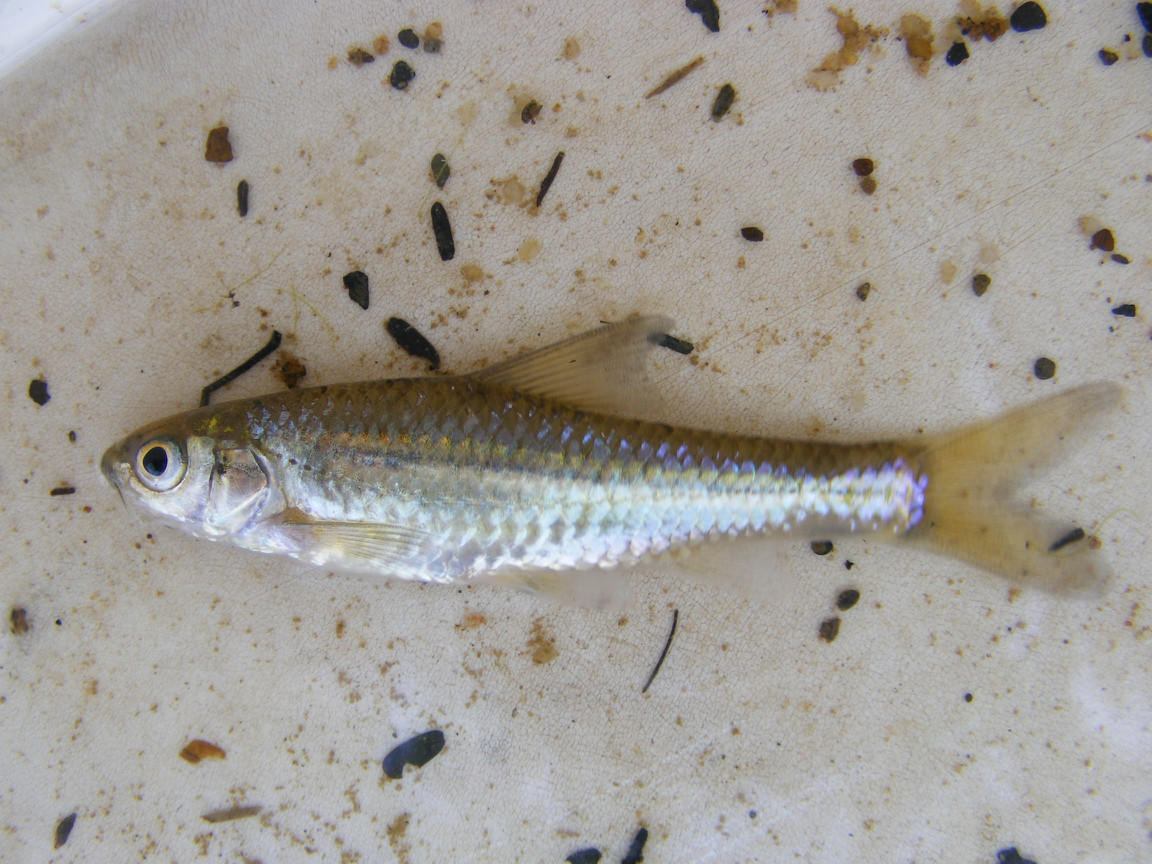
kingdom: Animalia
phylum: Chordata
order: Cypriniformes
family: Cyprinidae
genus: Enteromius
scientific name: Enteromius unitaeniatus
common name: Longbeard barb
